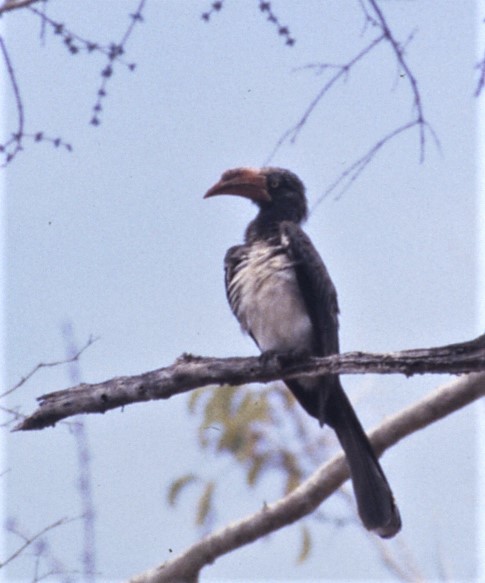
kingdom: Animalia
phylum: Chordata
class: Aves
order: Bucerotiformes
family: Bucerotidae
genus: Lophoceros
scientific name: Lophoceros alboterminatus
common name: Crowned hornbill
